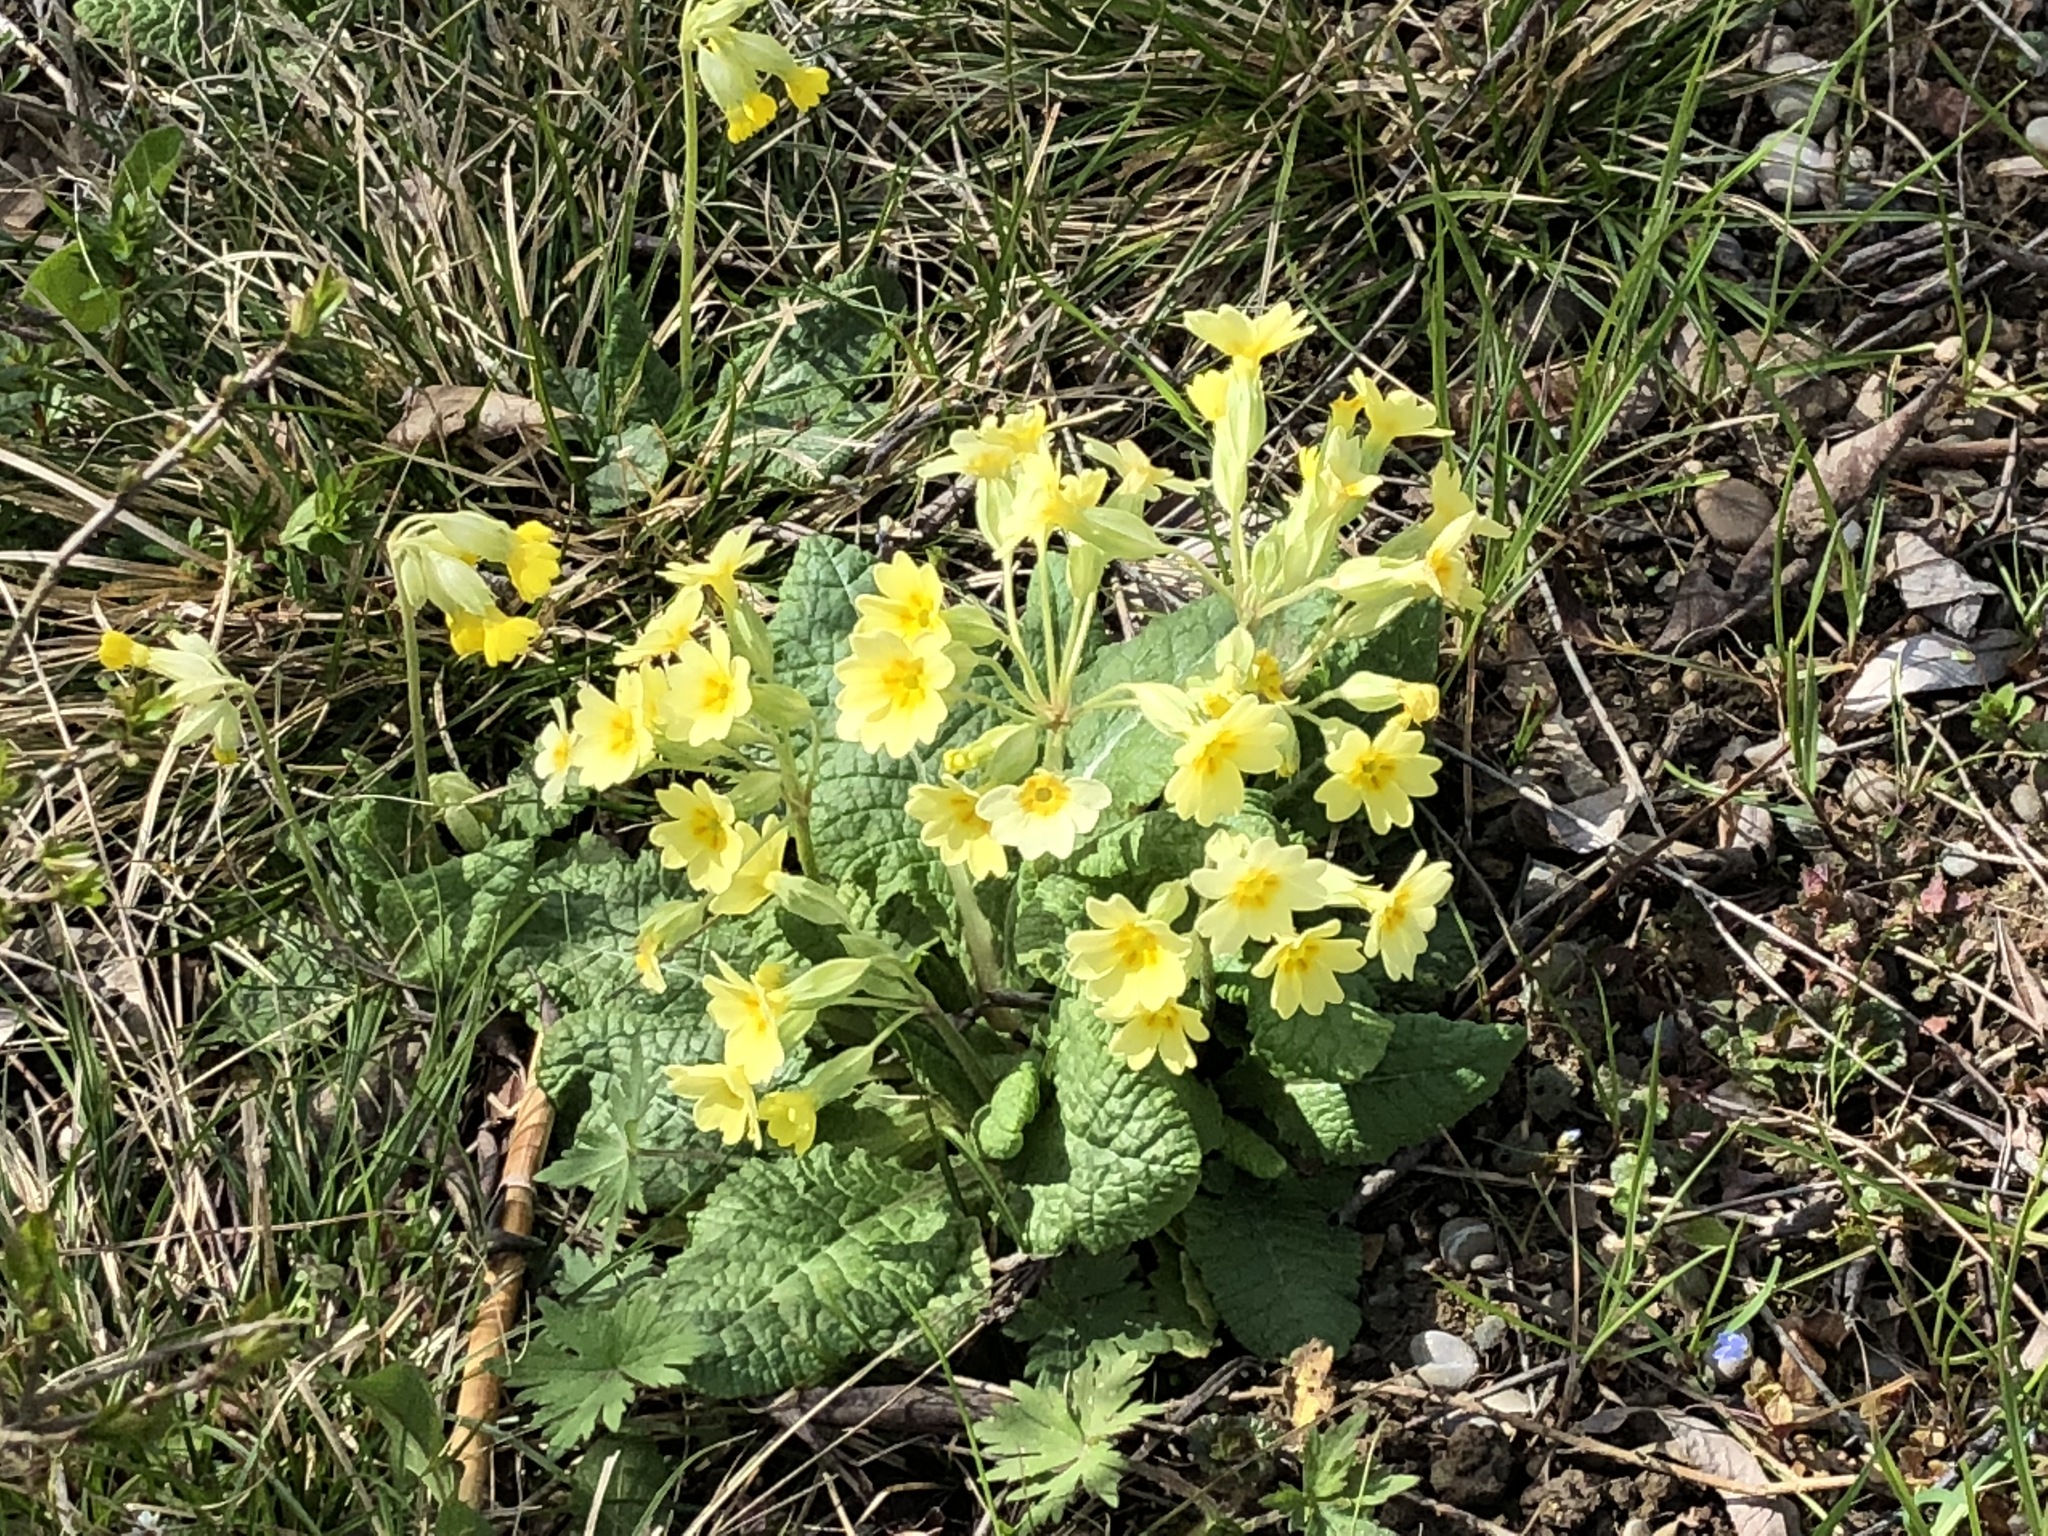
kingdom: Plantae
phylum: Tracheophyta
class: Magnoliopsida
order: Ericales
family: Primulaceae
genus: Primula
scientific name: Primula polyantha
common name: False oxlip
